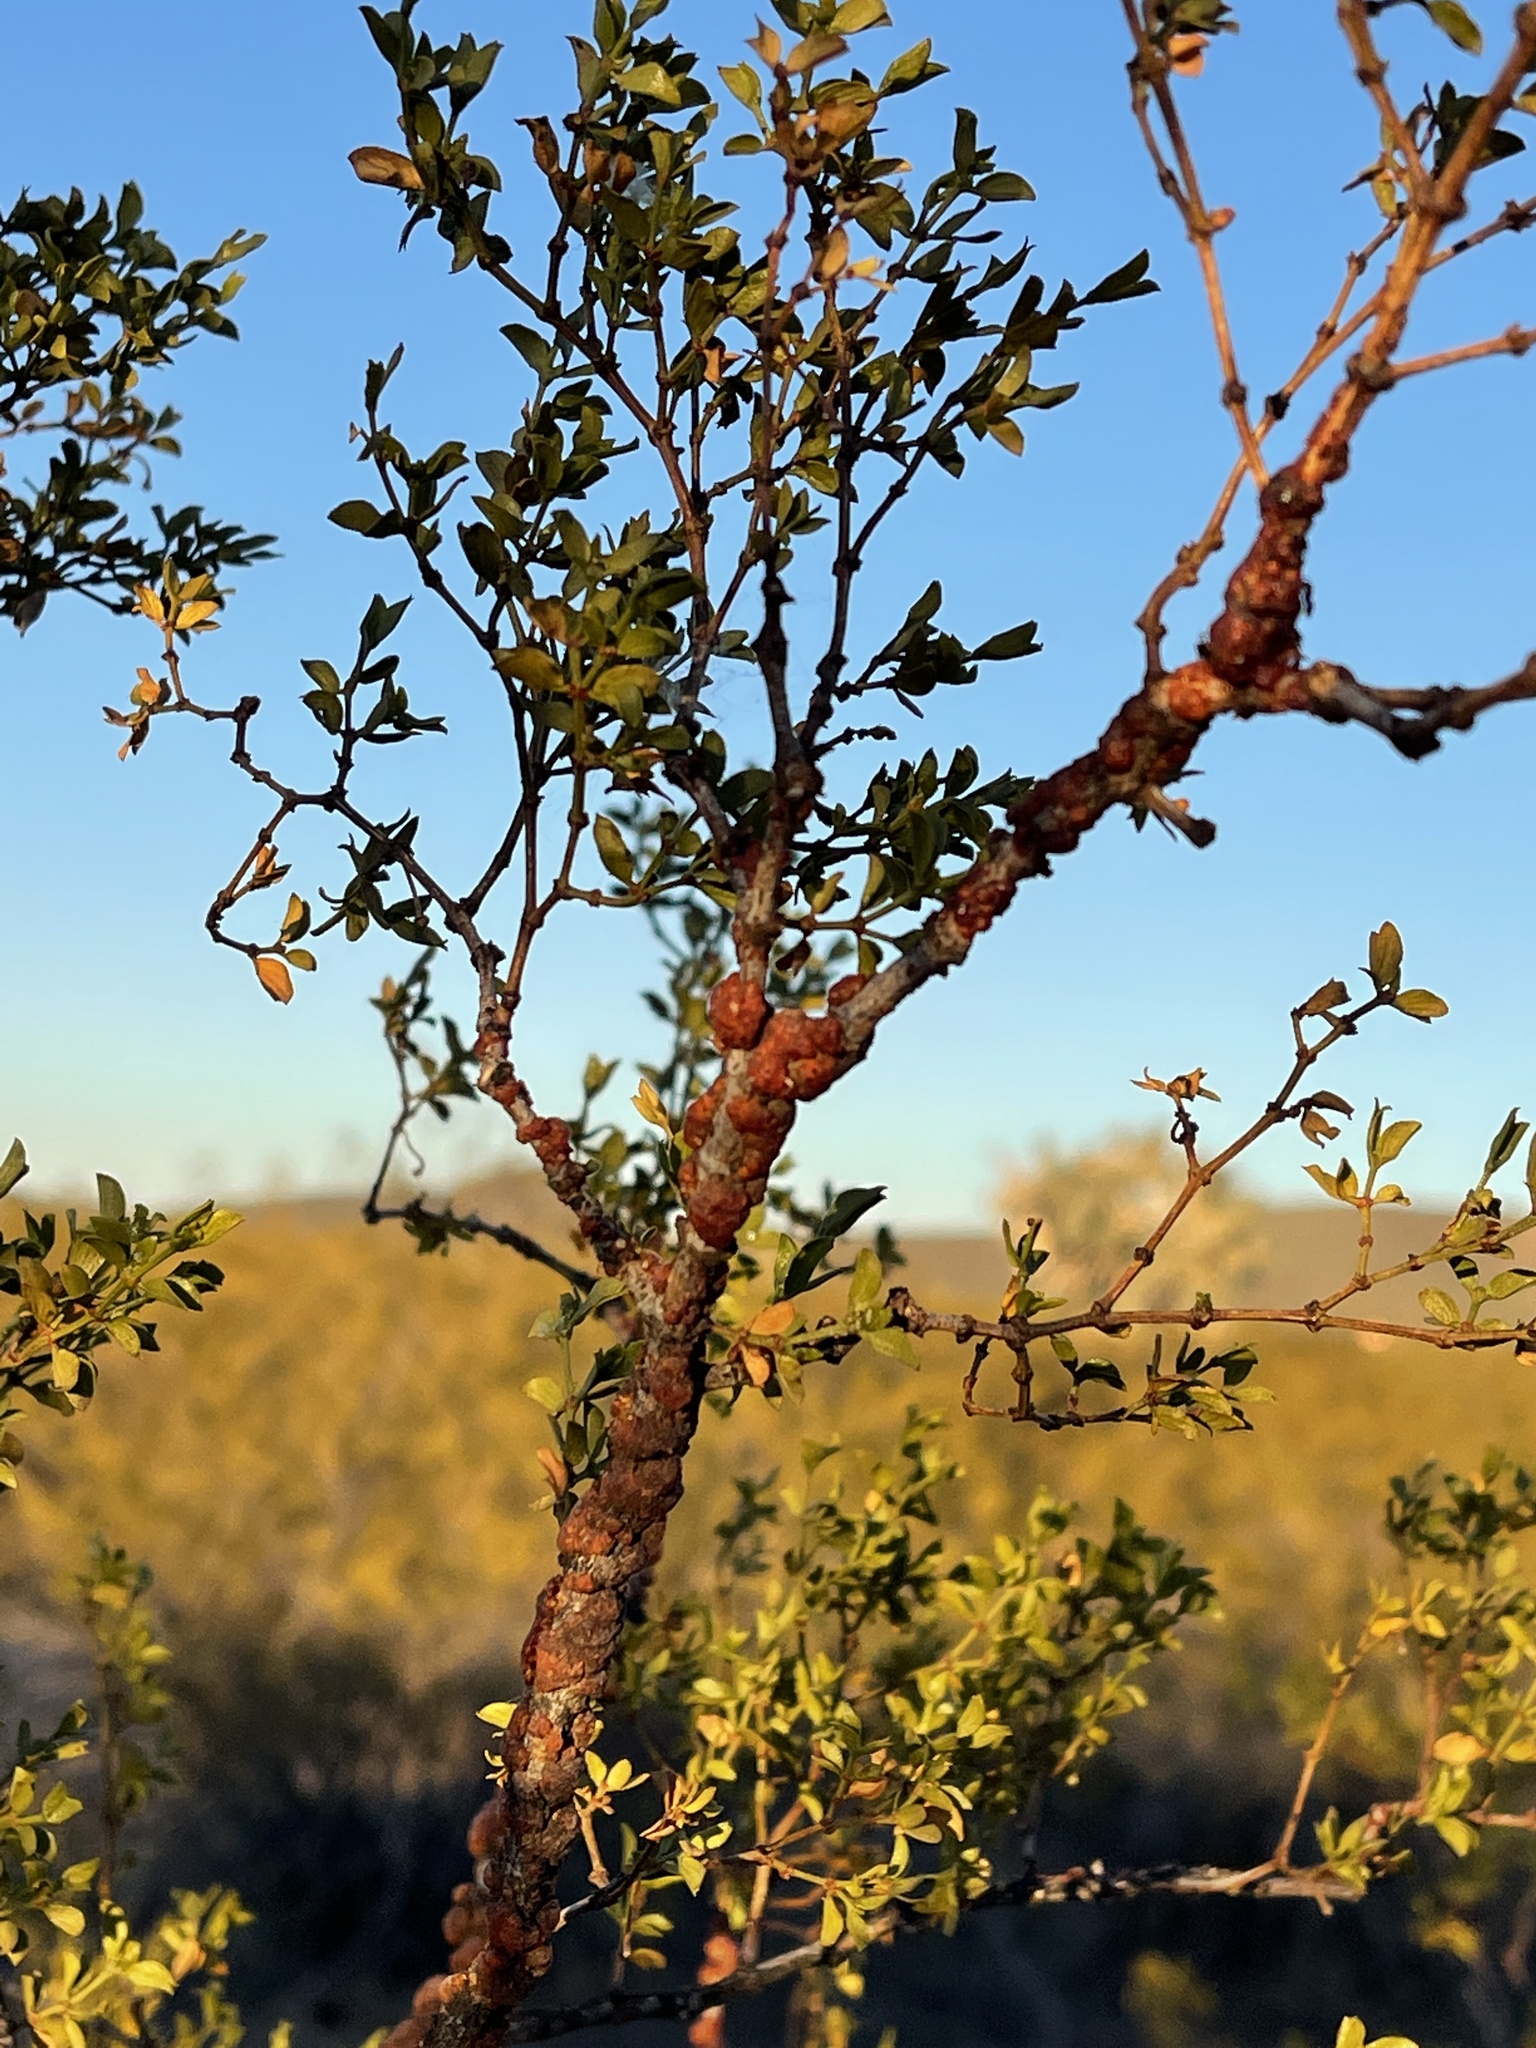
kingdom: Animalia
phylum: Arthropoda
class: Insecta
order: Hemiptera
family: Kerriidae
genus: Tachardiella
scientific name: Tachardiella larreae
